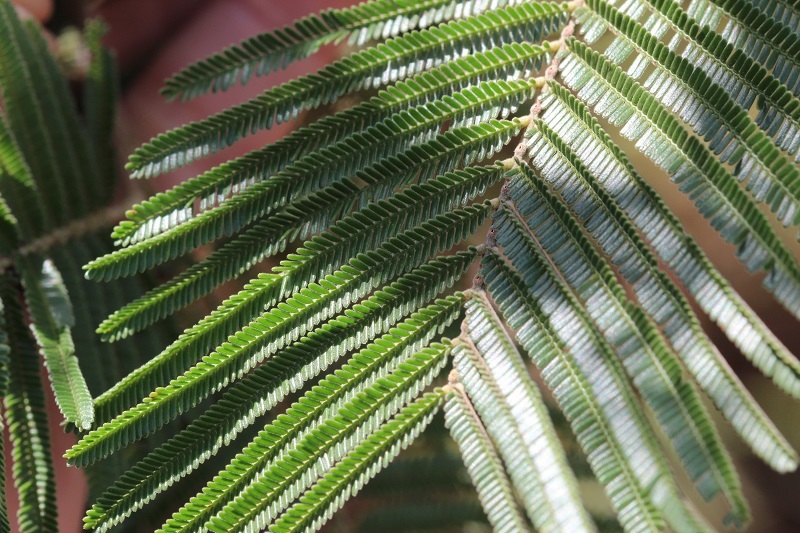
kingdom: Plantae
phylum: Tracheophyta
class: Magnoliopsida
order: Fabales
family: Fabaceae
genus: Acacia
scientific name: Acacia mearnsii
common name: Black wattle
